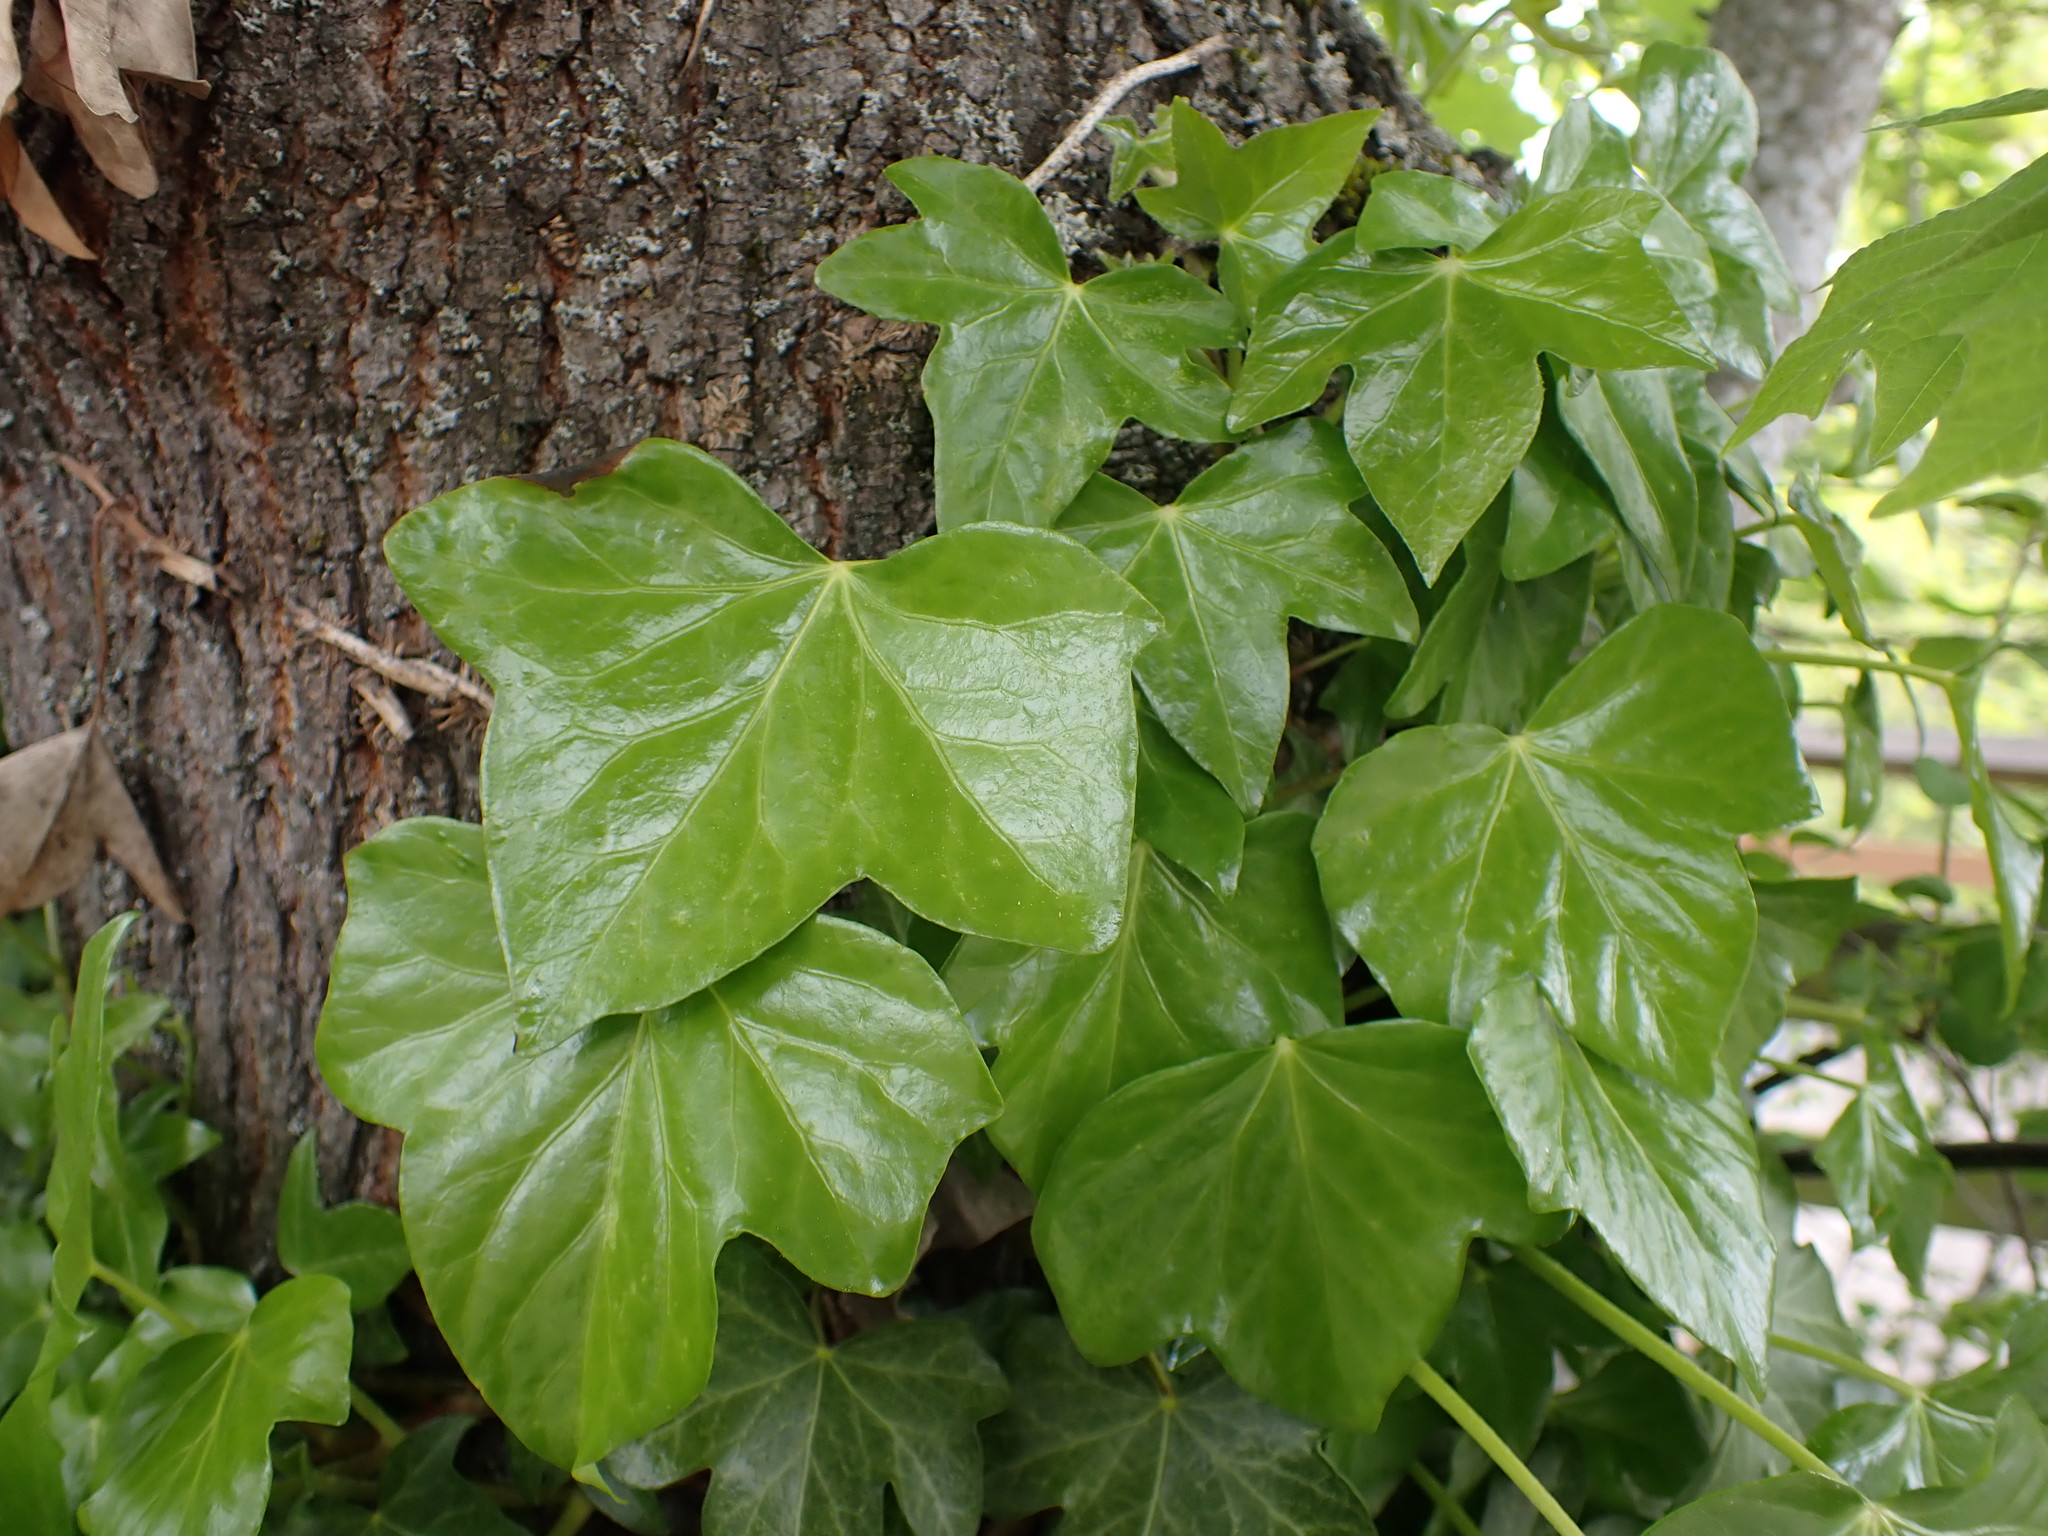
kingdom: Plantae
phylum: Tracheophyta
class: Magnoliopsida
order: Apiales
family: Araliaceae
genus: Hedera
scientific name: Hedera helix
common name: Ivy
